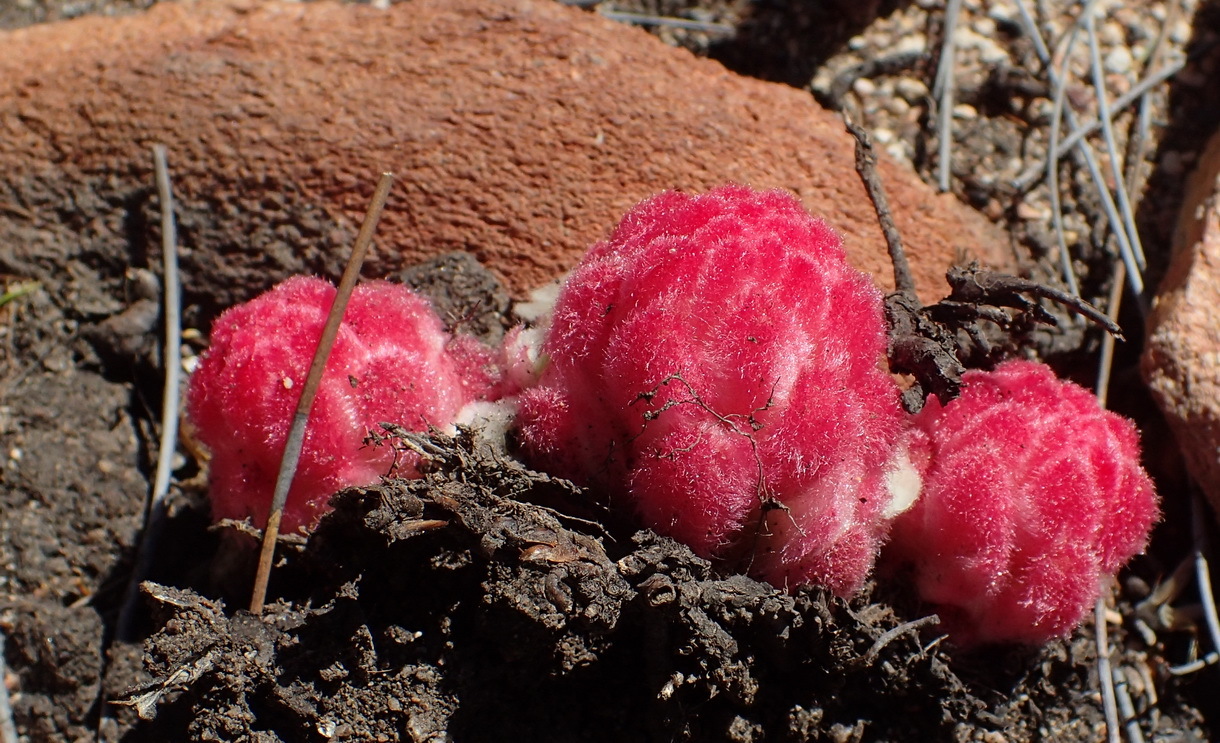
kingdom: Plantae
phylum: Tracheophyta
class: Magnoliopsida
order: Lamiales
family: Orobanchaceae
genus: Harveya
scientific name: Harveya roseoalba
